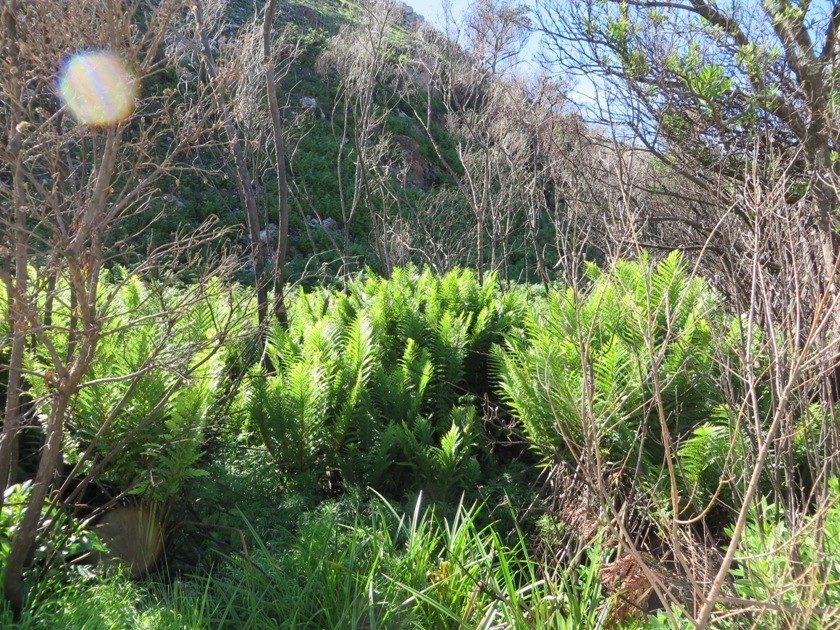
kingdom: Plantae
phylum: Tracheophyta
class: Polypodiopsida
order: Osmundales
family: Osmundaceae
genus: Todea
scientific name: Todea barbara
